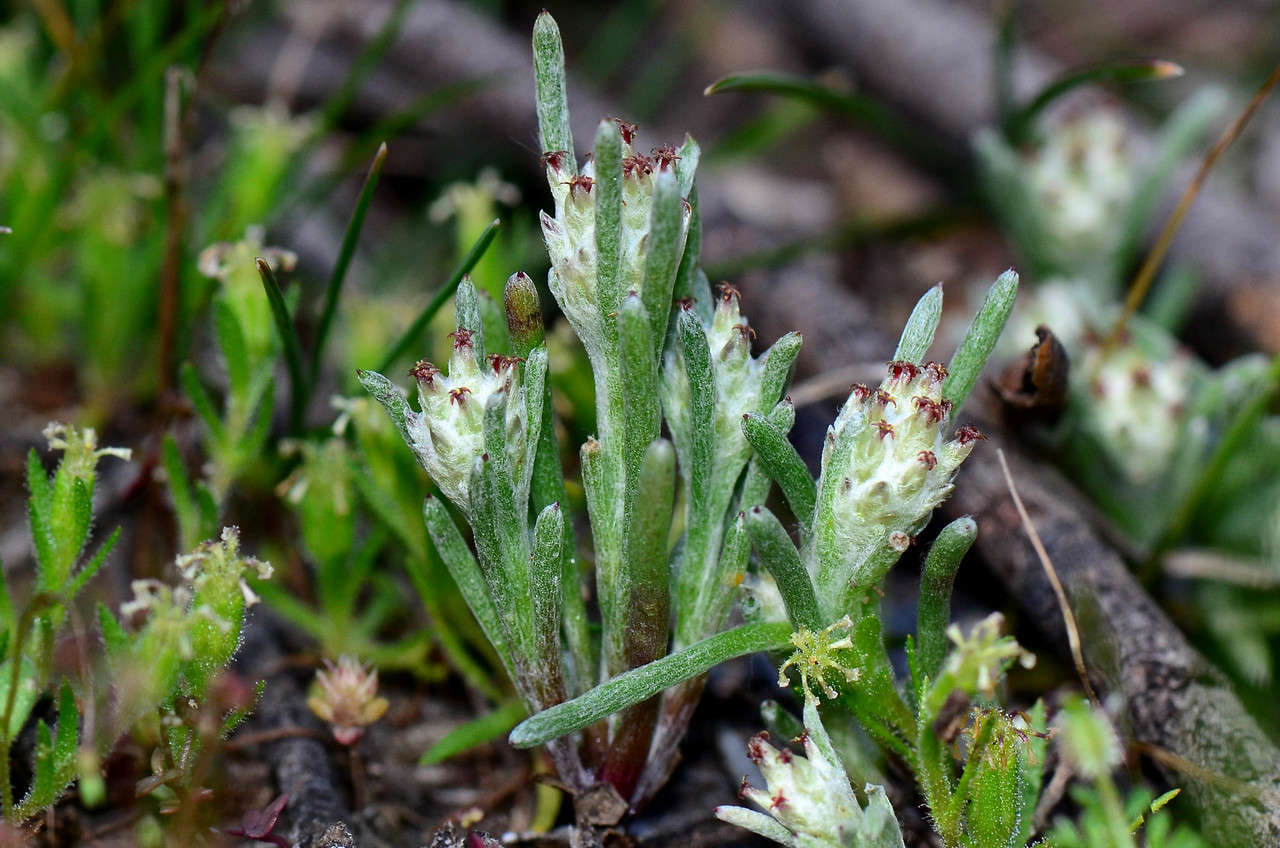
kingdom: Plantae
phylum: Tracheophyta
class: Magnoliopsida
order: Asterales
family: Asteraceae
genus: Blennospora
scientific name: Blennospora drummondii
